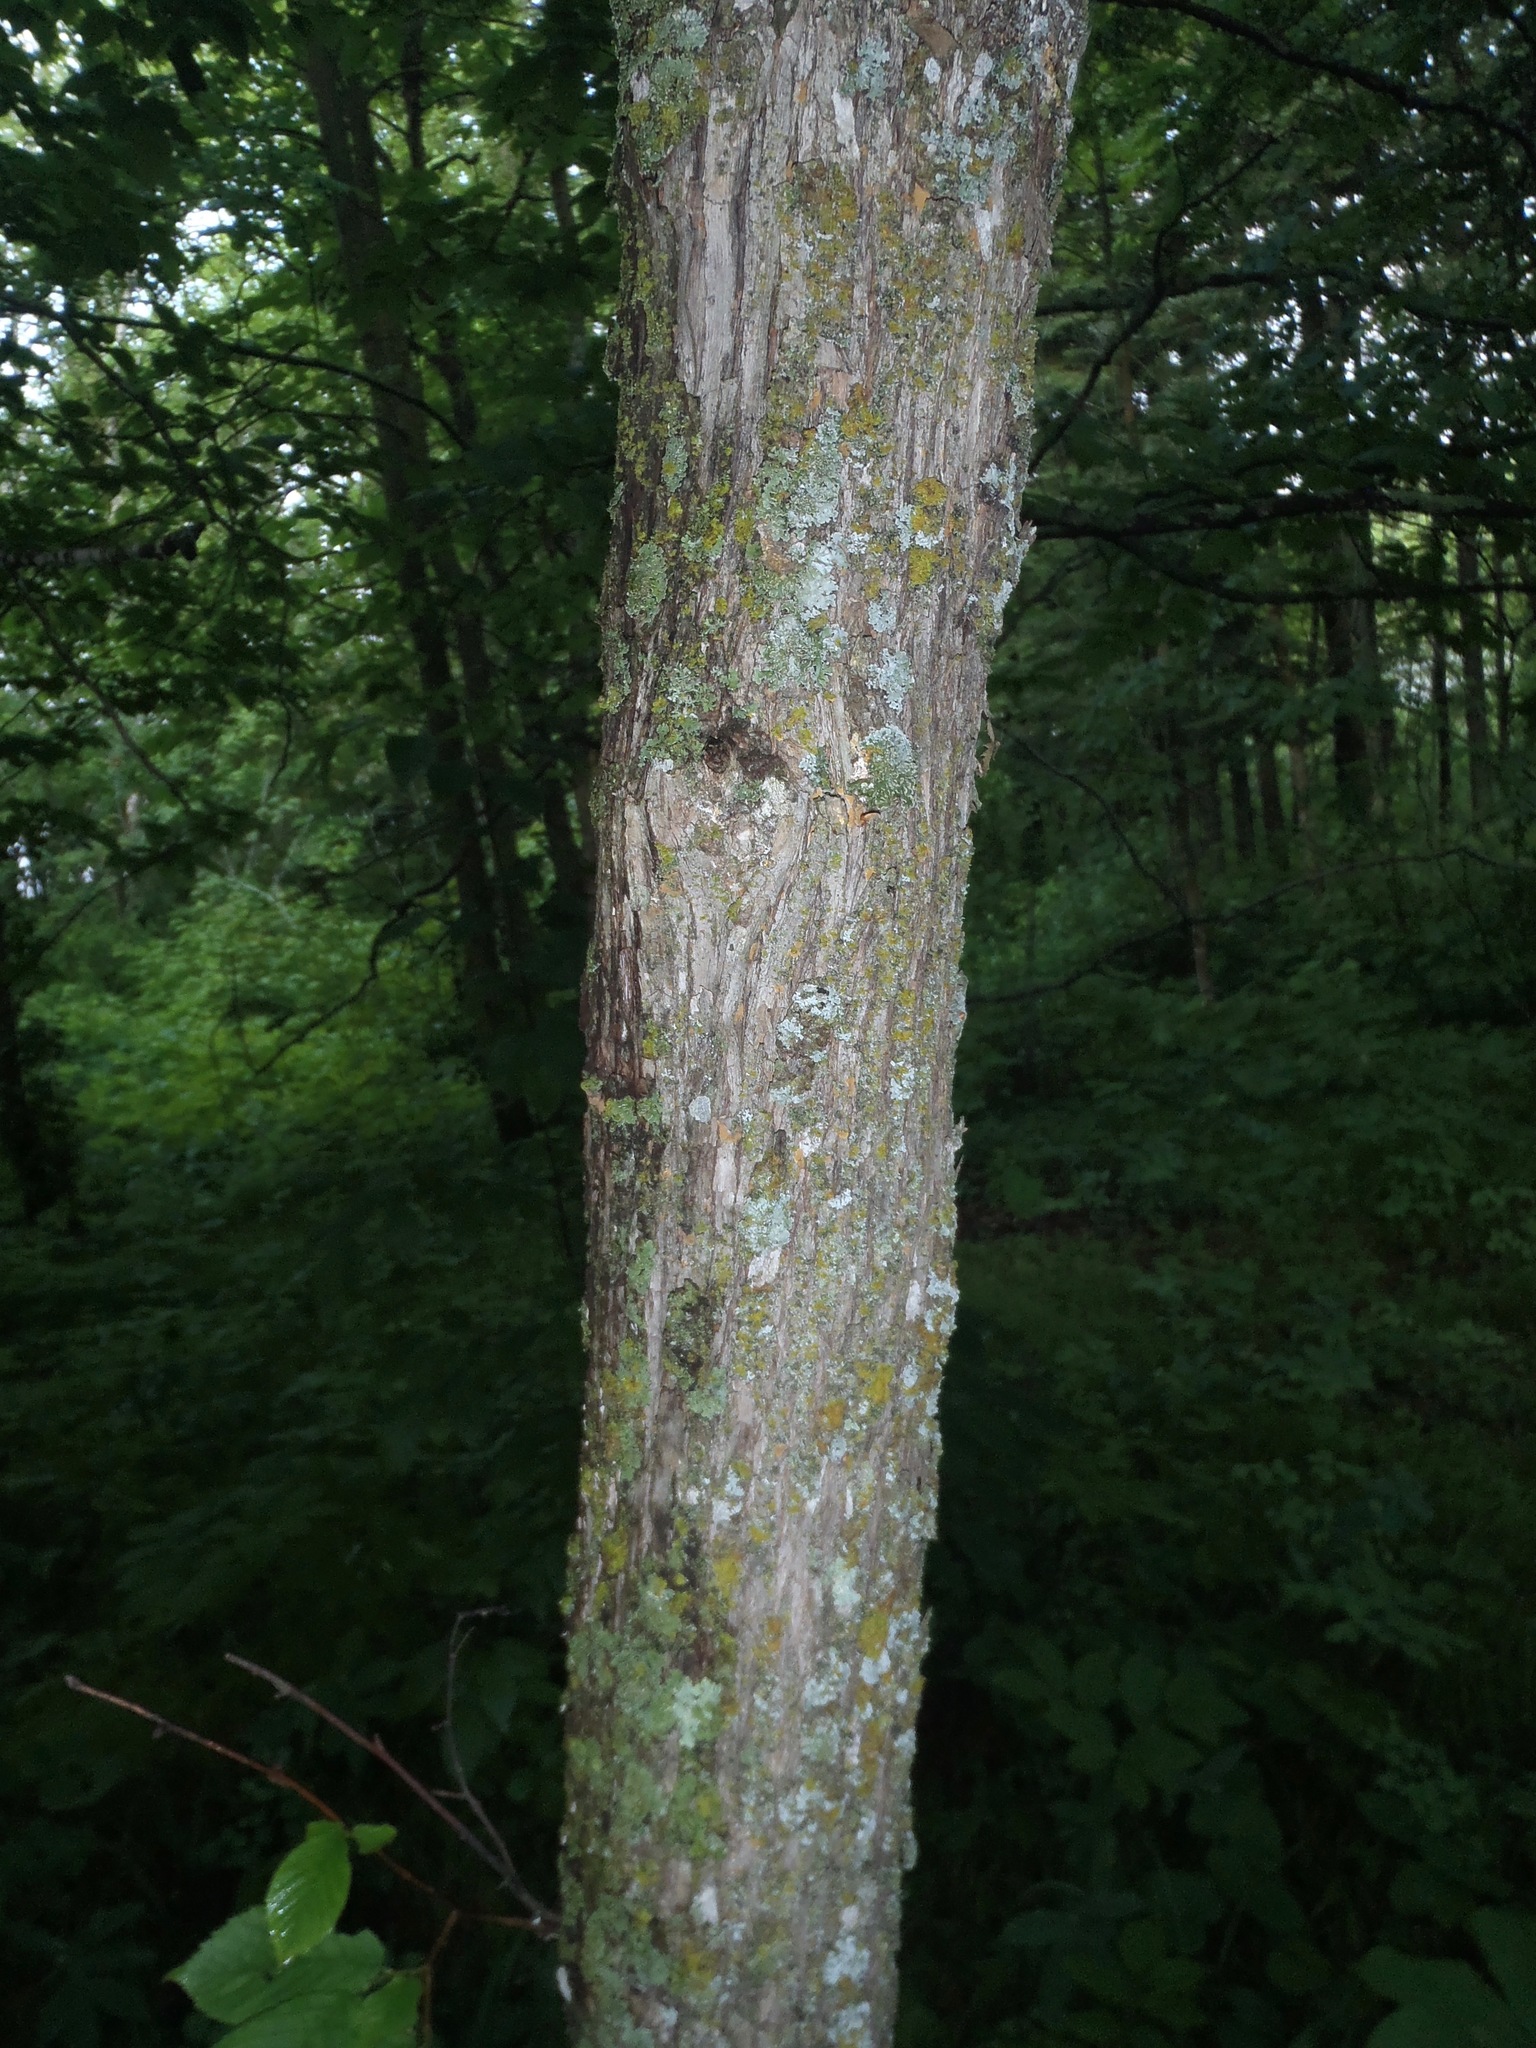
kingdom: Plantae
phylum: Tracheophyta
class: Magnoliopsida
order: Fagales
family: Betulaceae
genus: Ostrya
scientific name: Ostrya virginiana
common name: Ironwood
